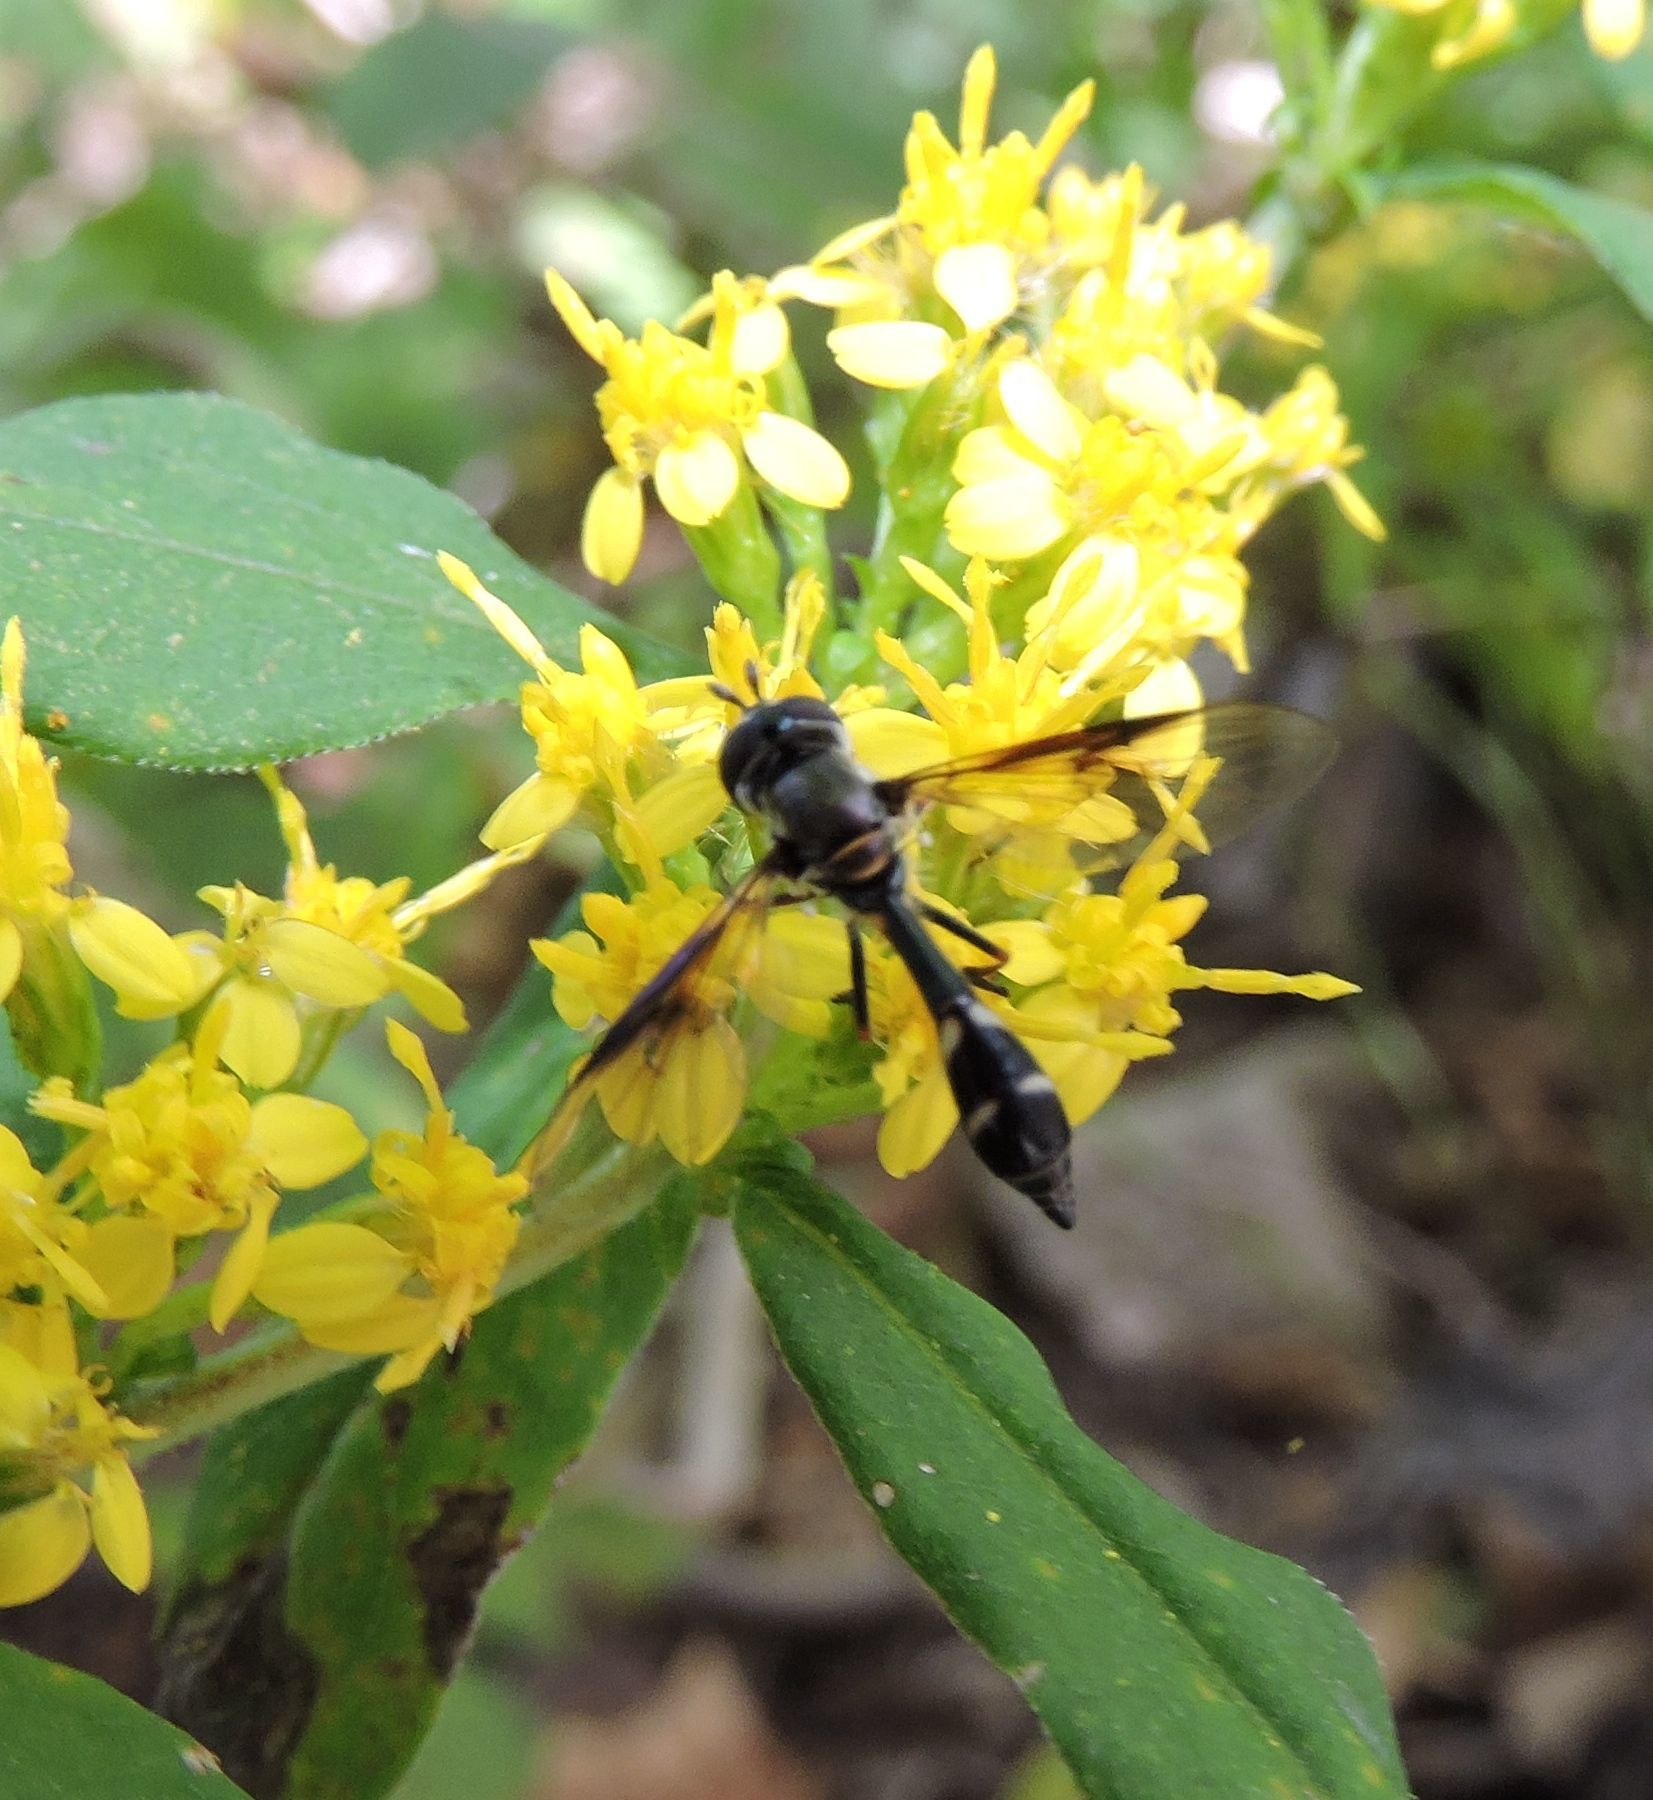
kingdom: Animalia
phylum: Arthropoda
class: Insecta
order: Diptera
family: Syrphidae
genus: Dioprosopa
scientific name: Dioprosopa clavatus
